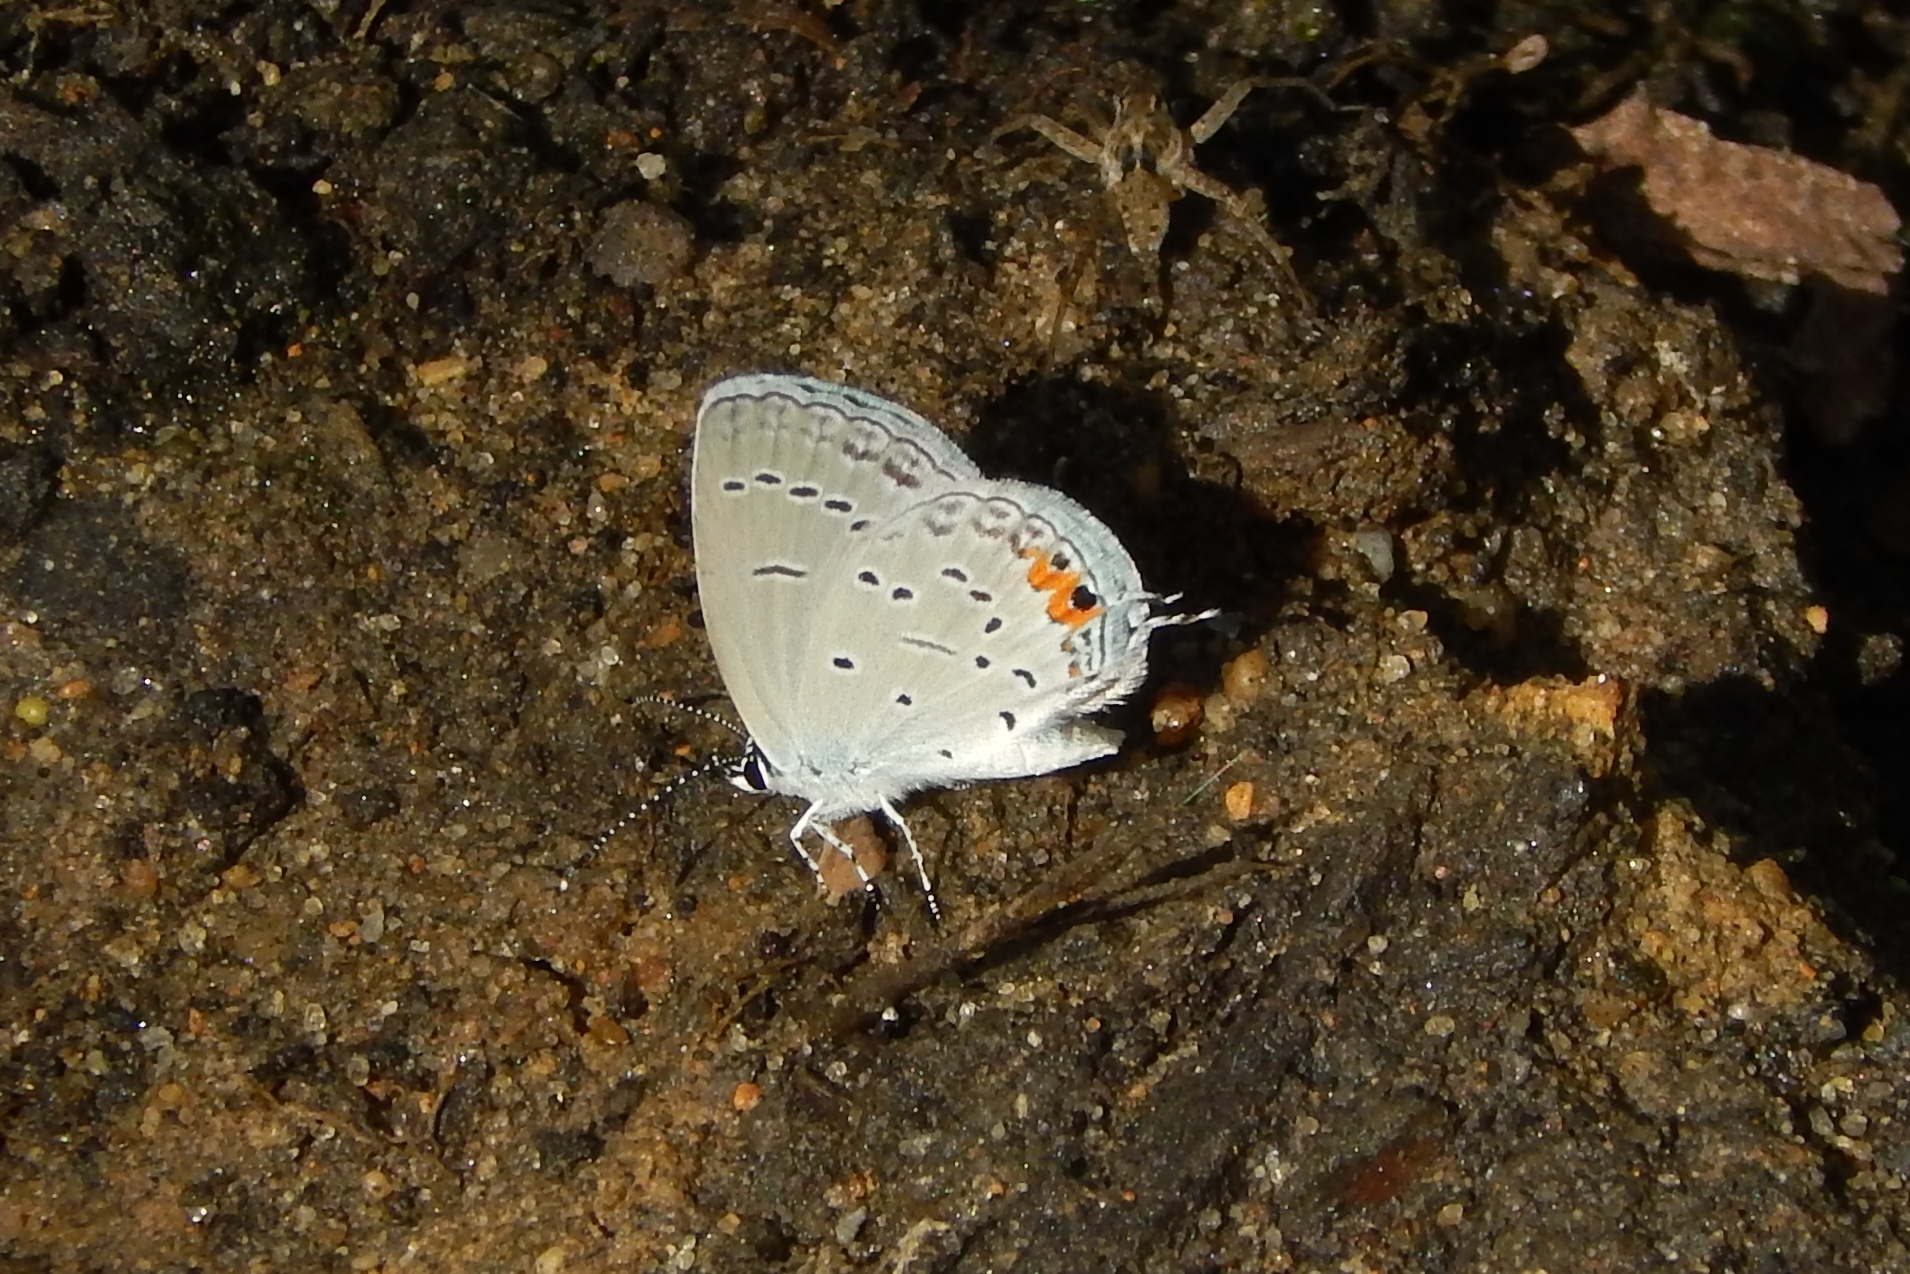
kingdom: Animalia
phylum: Arthropoda
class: Insecta
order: Lepidoptera
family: Lycaenidae
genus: Elkalyce
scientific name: Elkalyce comyntas
